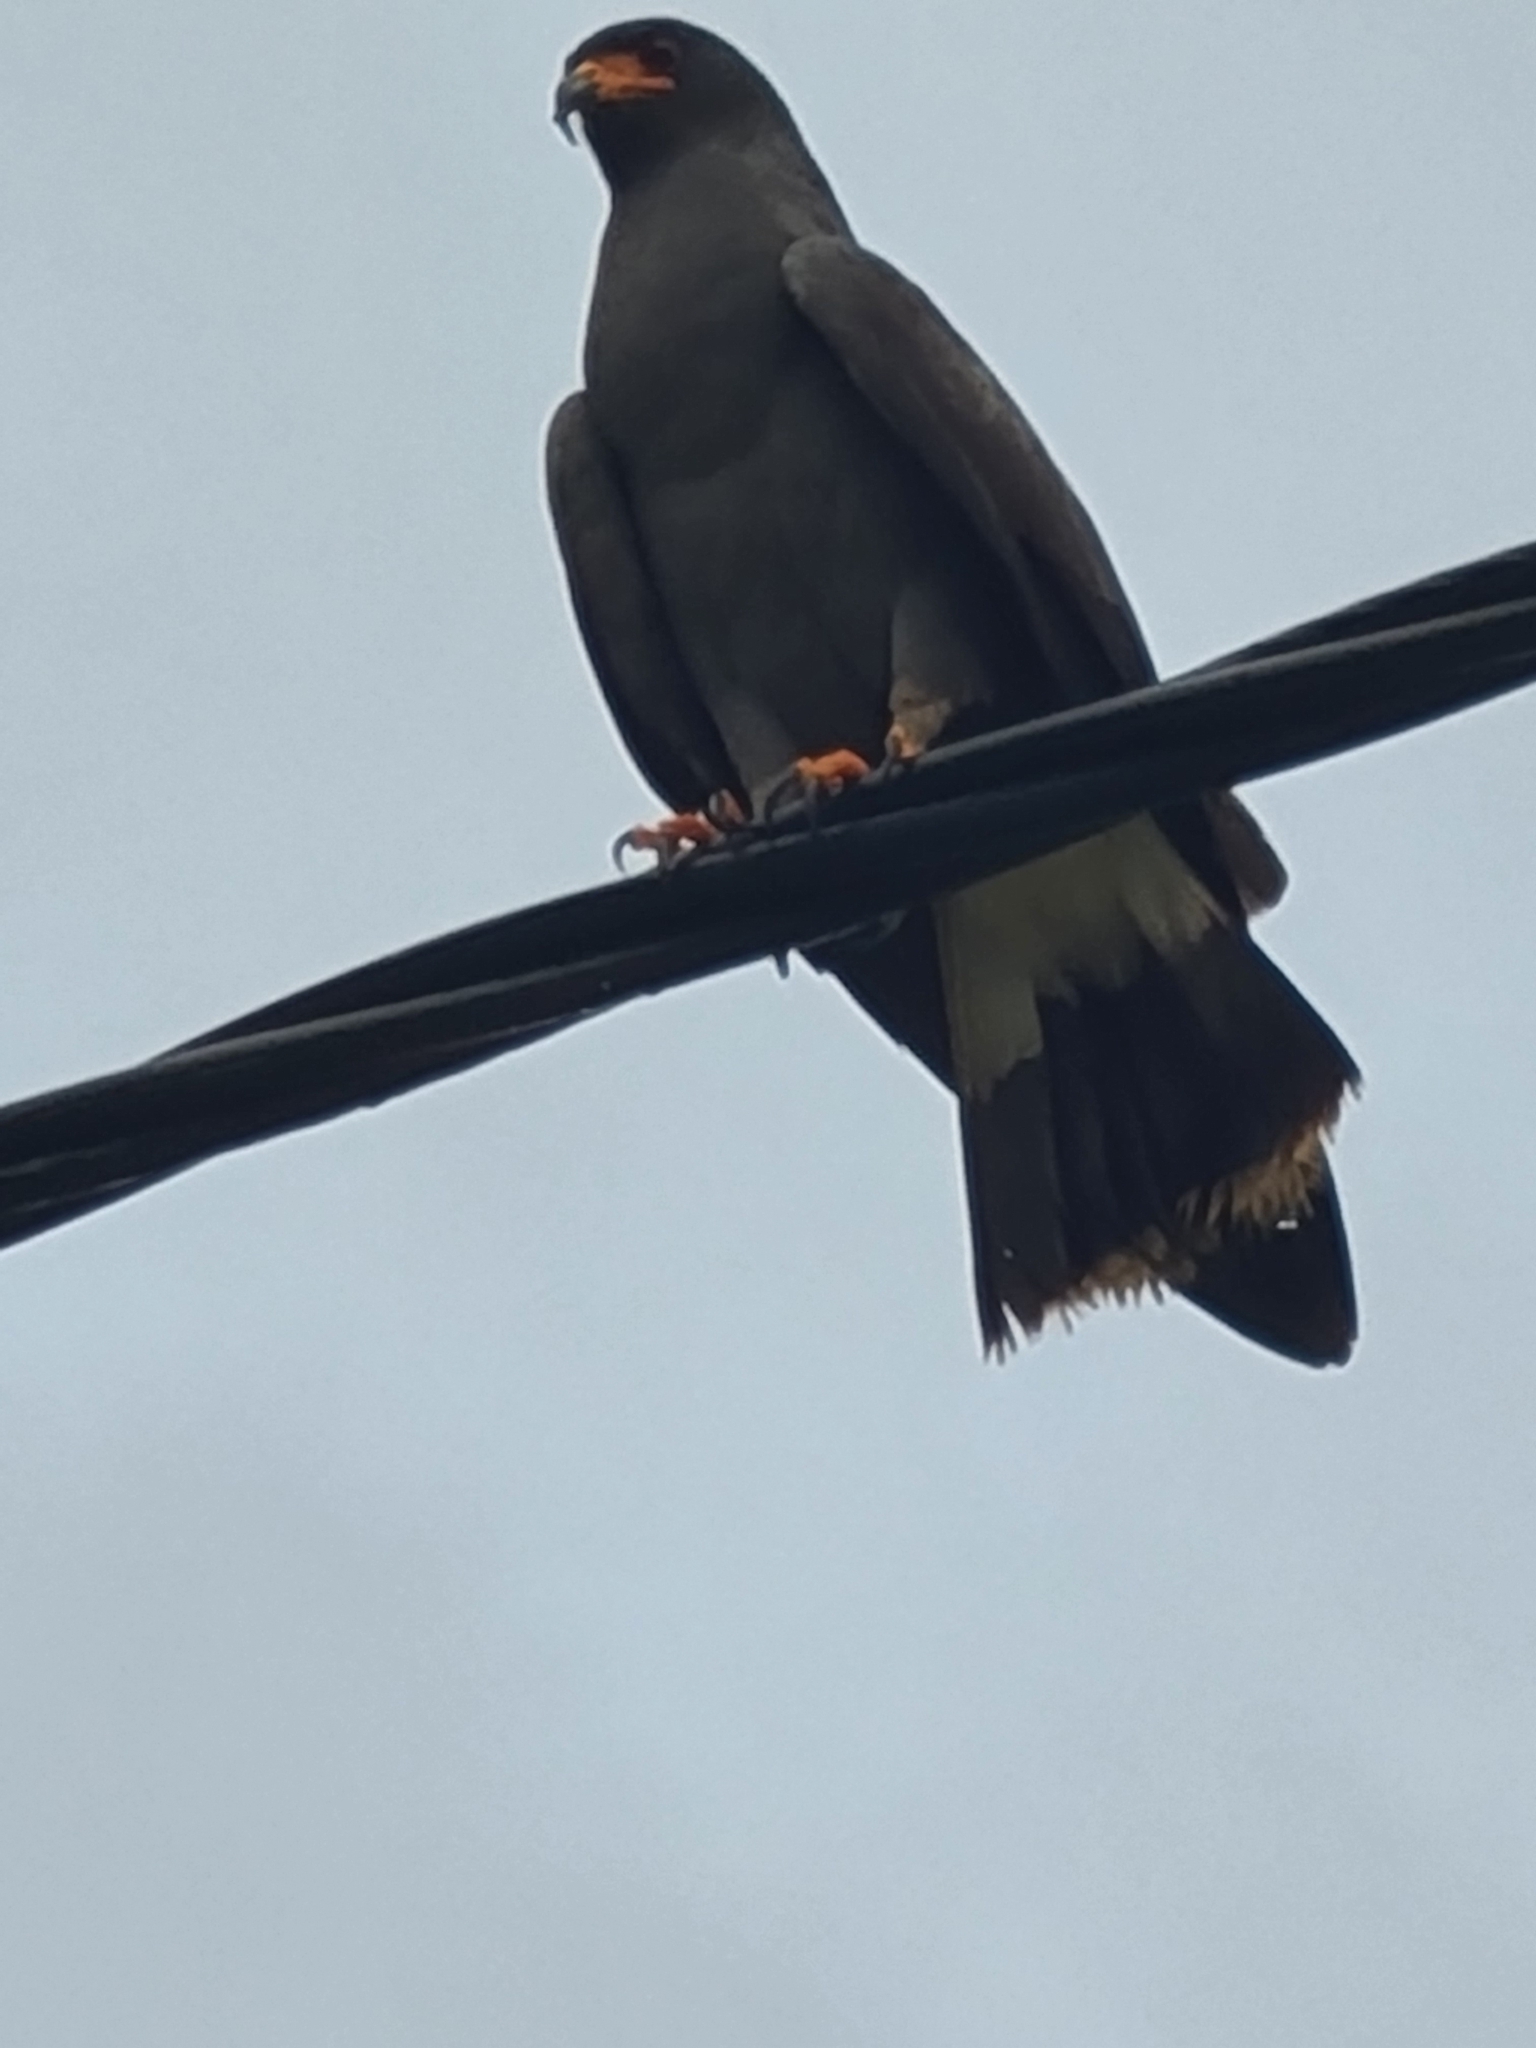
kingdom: Animalia
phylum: Chordata
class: Aves
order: Accipitriformes
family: Accipitridae
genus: Rostrhamus
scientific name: Rostrhamus sociabilis
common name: Snail kite
